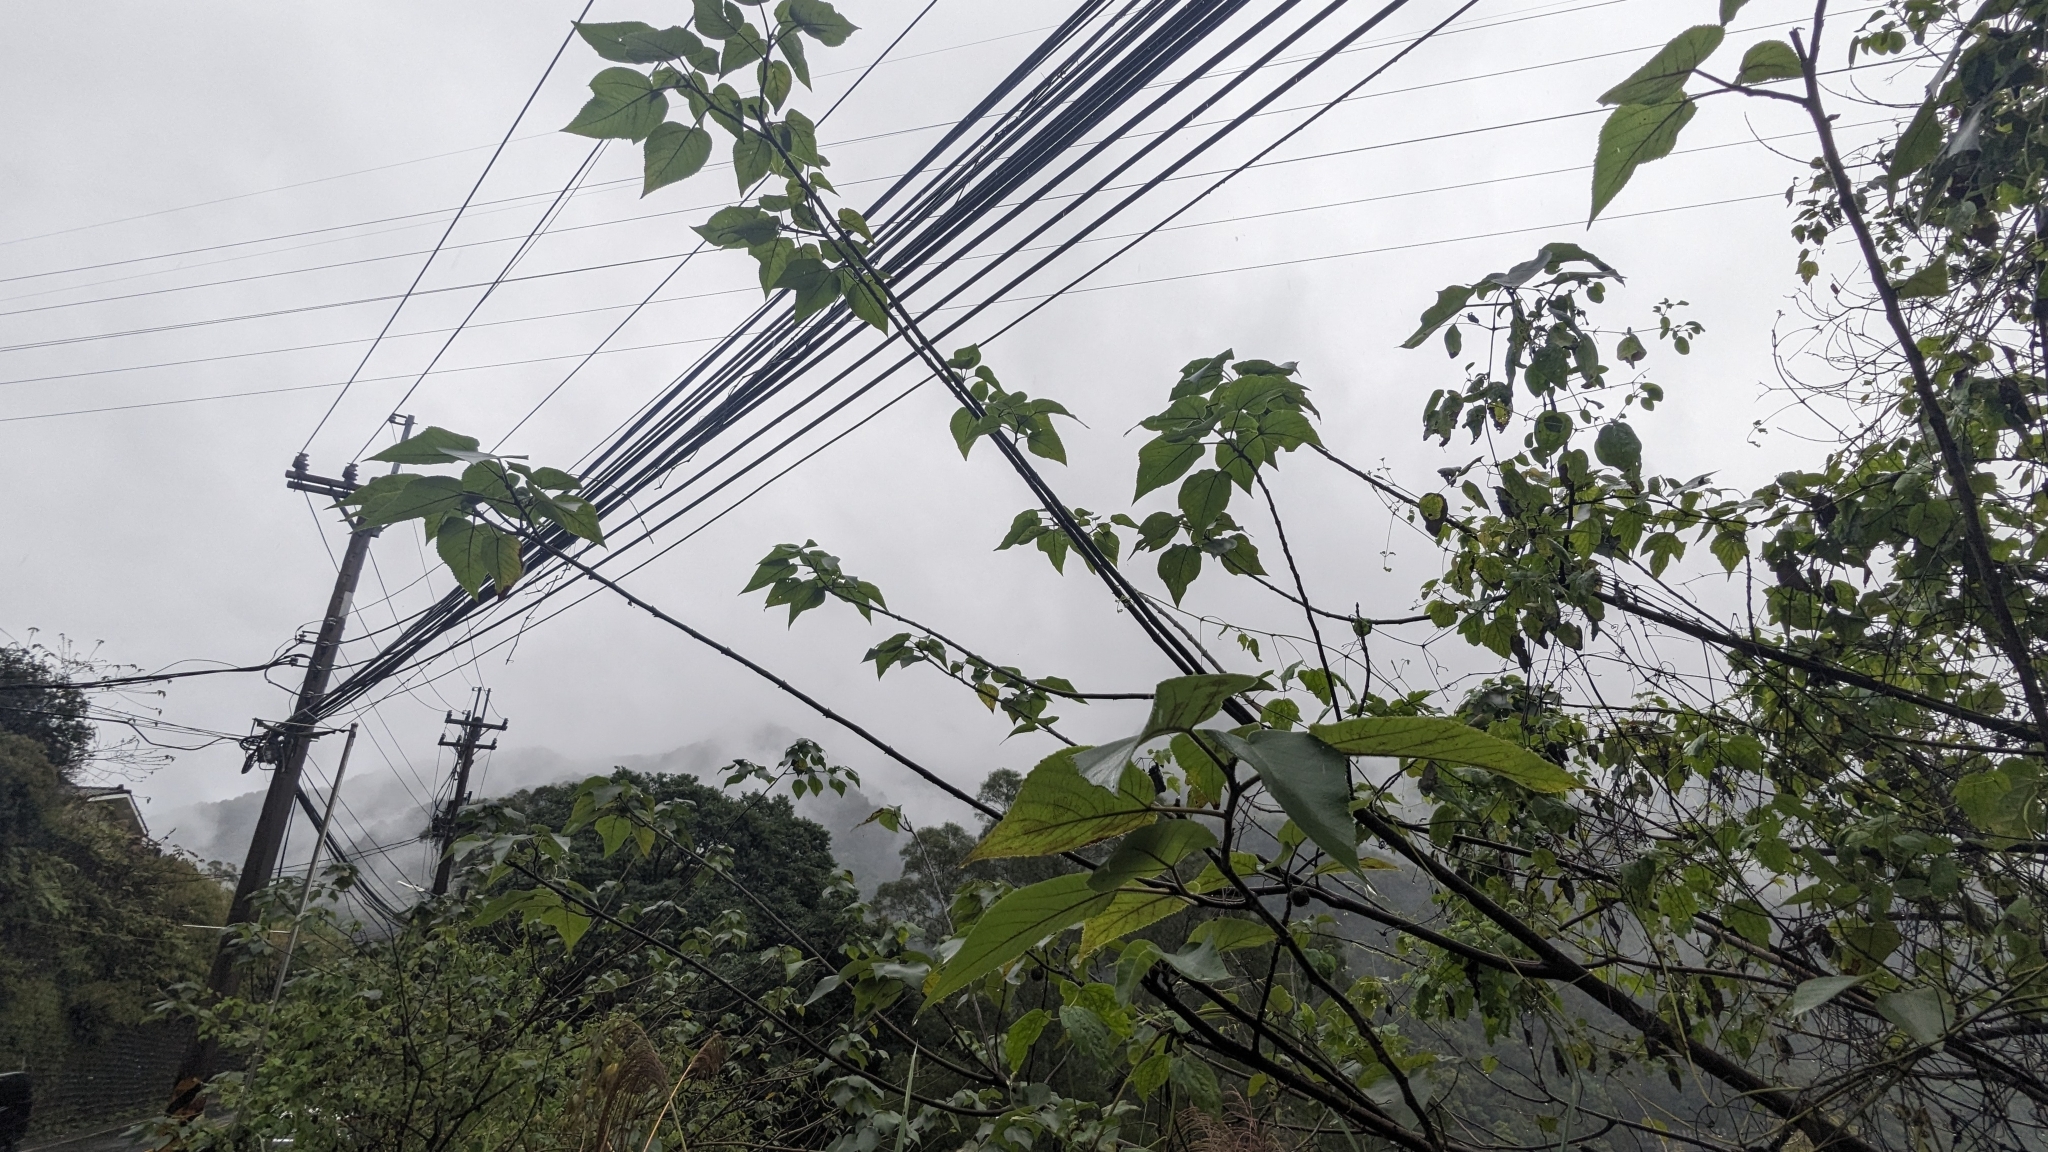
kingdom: Plantae
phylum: Tracheophyta
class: Magnoliopsida
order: Rosales
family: Moraceae
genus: Broussonetia
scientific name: Broussonetia papyrifera
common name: Paper mulberry
